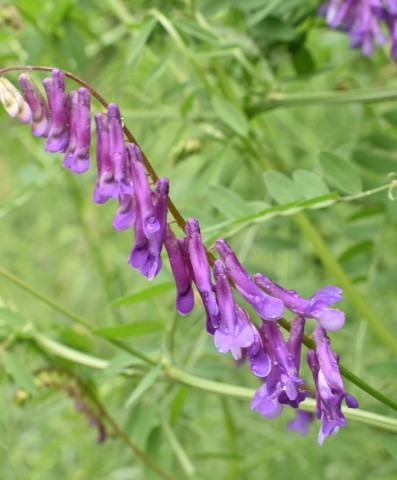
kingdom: Plantae
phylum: Tracheophyta
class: Magnoliopsida
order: Fabales
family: Fabaceae
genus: Vicia
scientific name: Vicia villosa
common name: Fodder vetch
